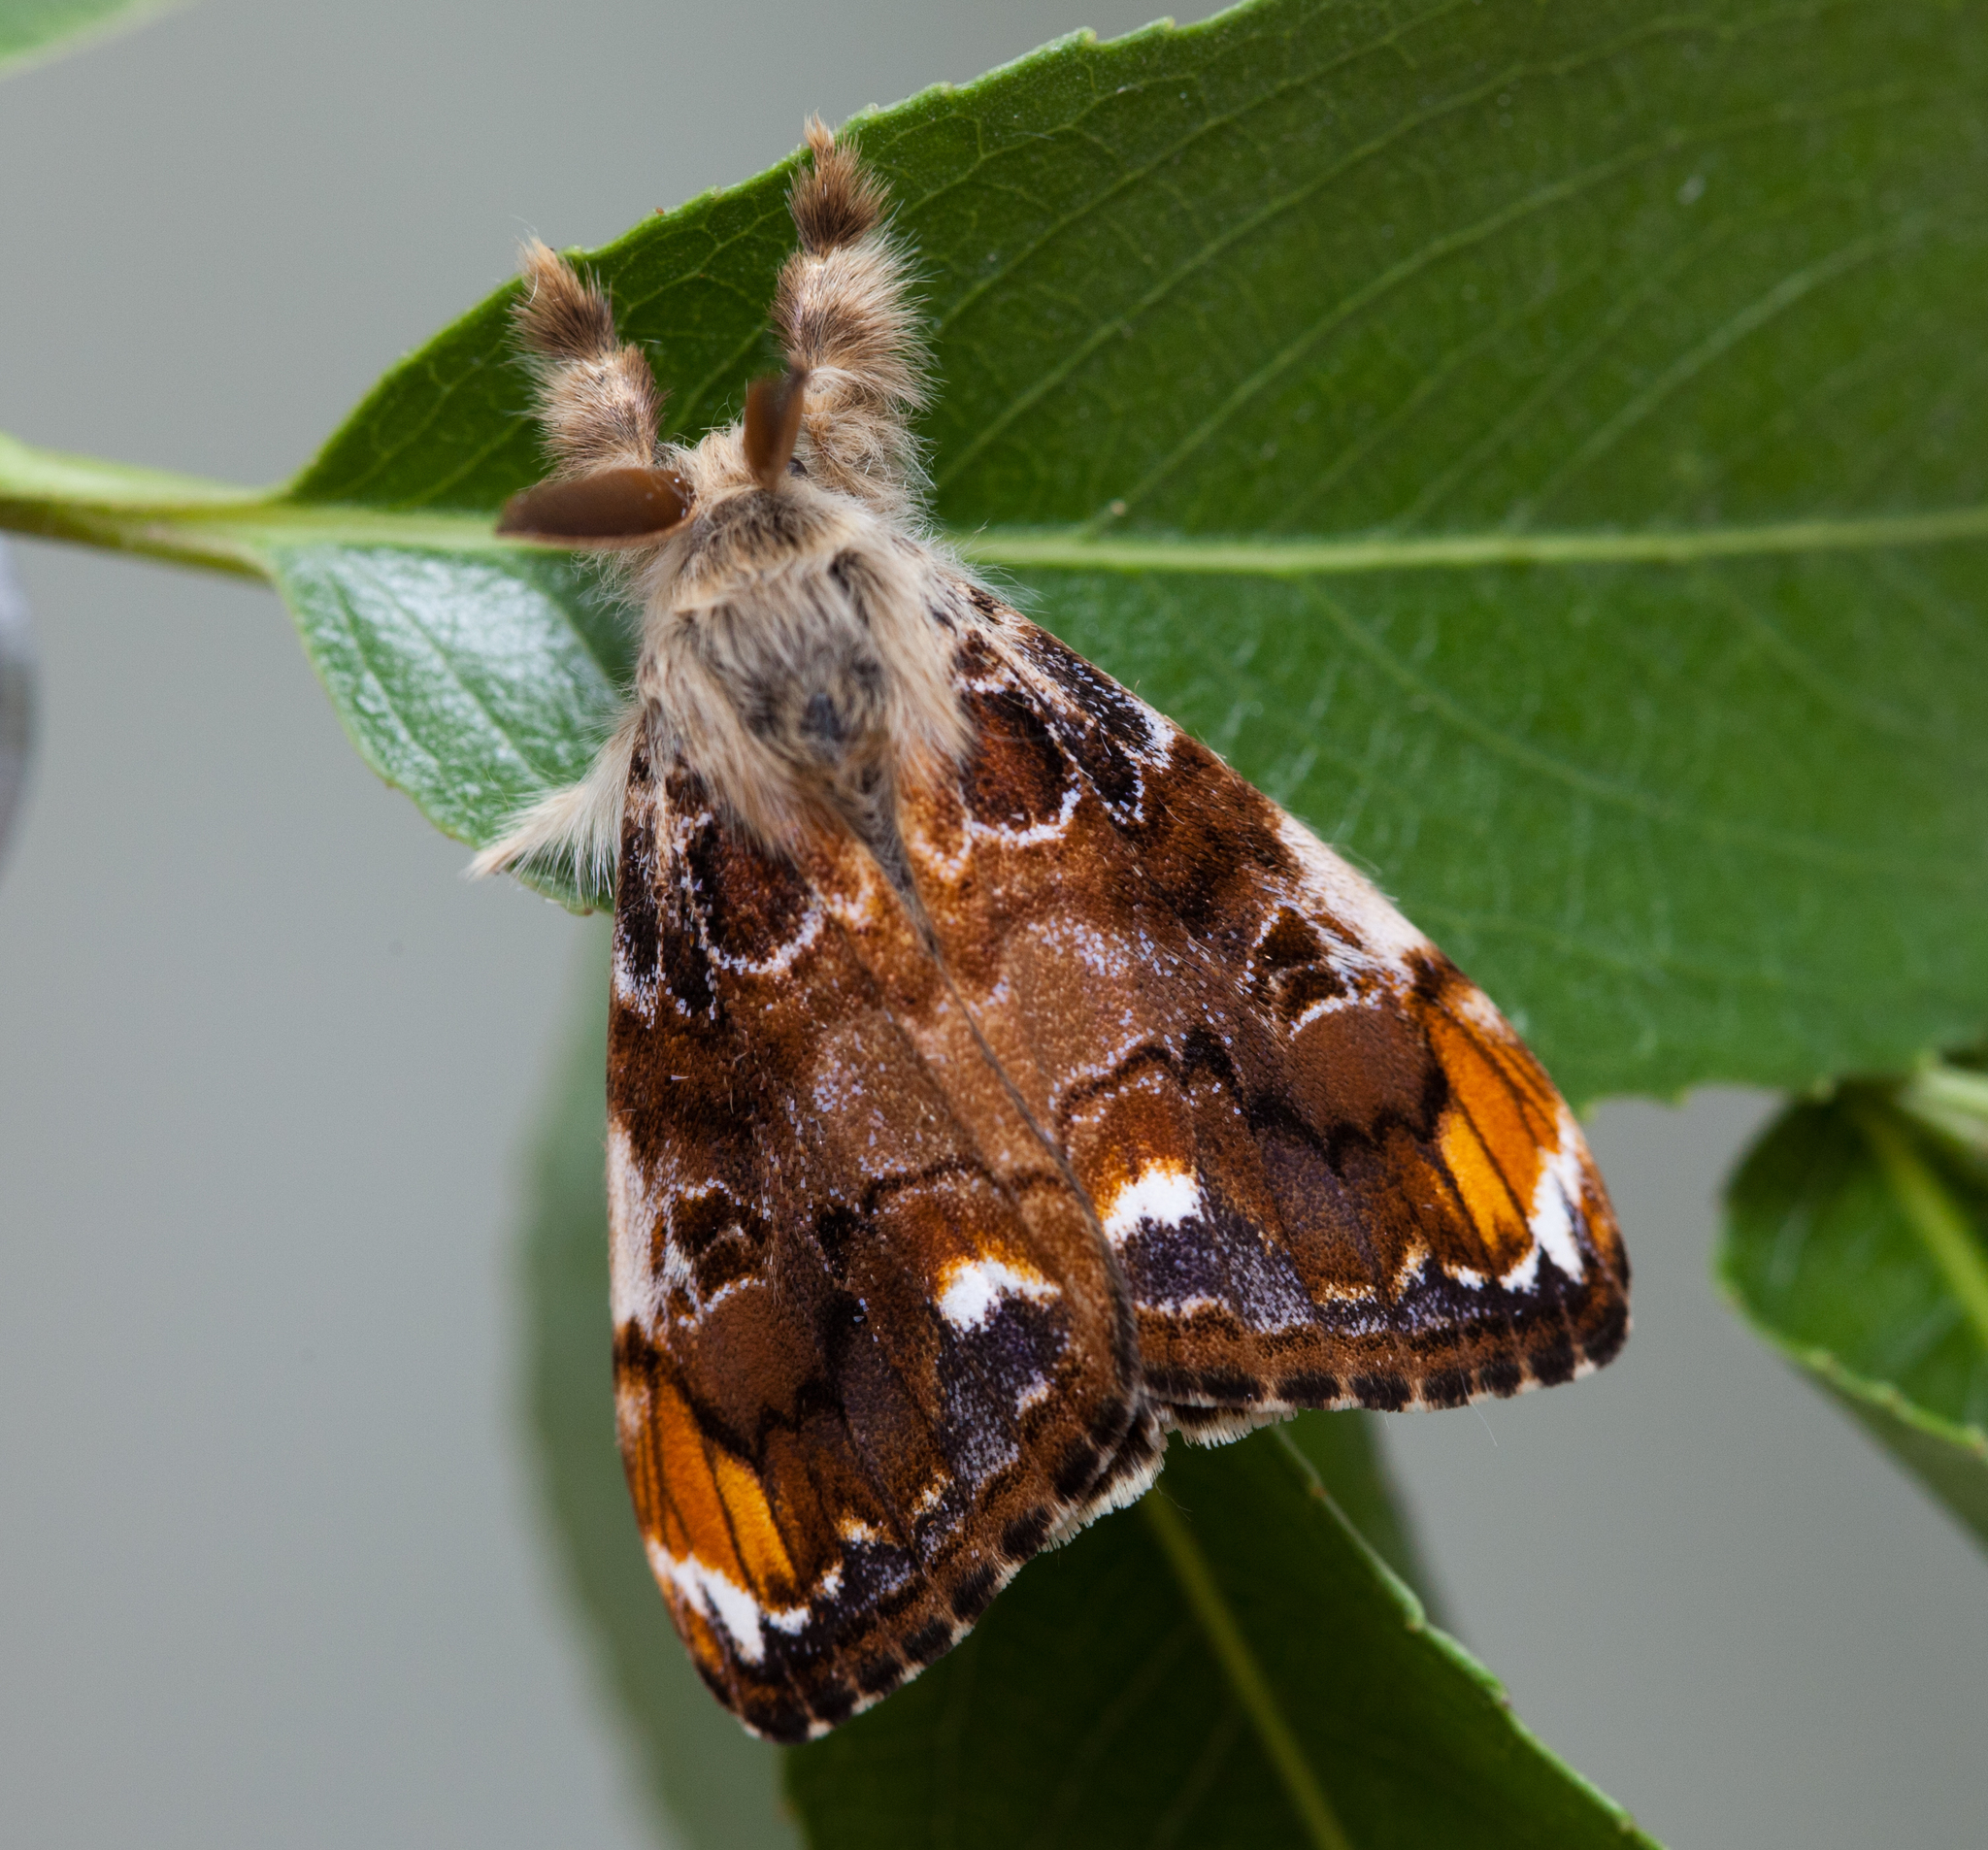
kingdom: Animalia
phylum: Arthropoda
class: Insecta
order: Lepidoptera
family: Erebidae
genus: Orgyia
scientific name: Orgyia recens
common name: Scarce vapourer
